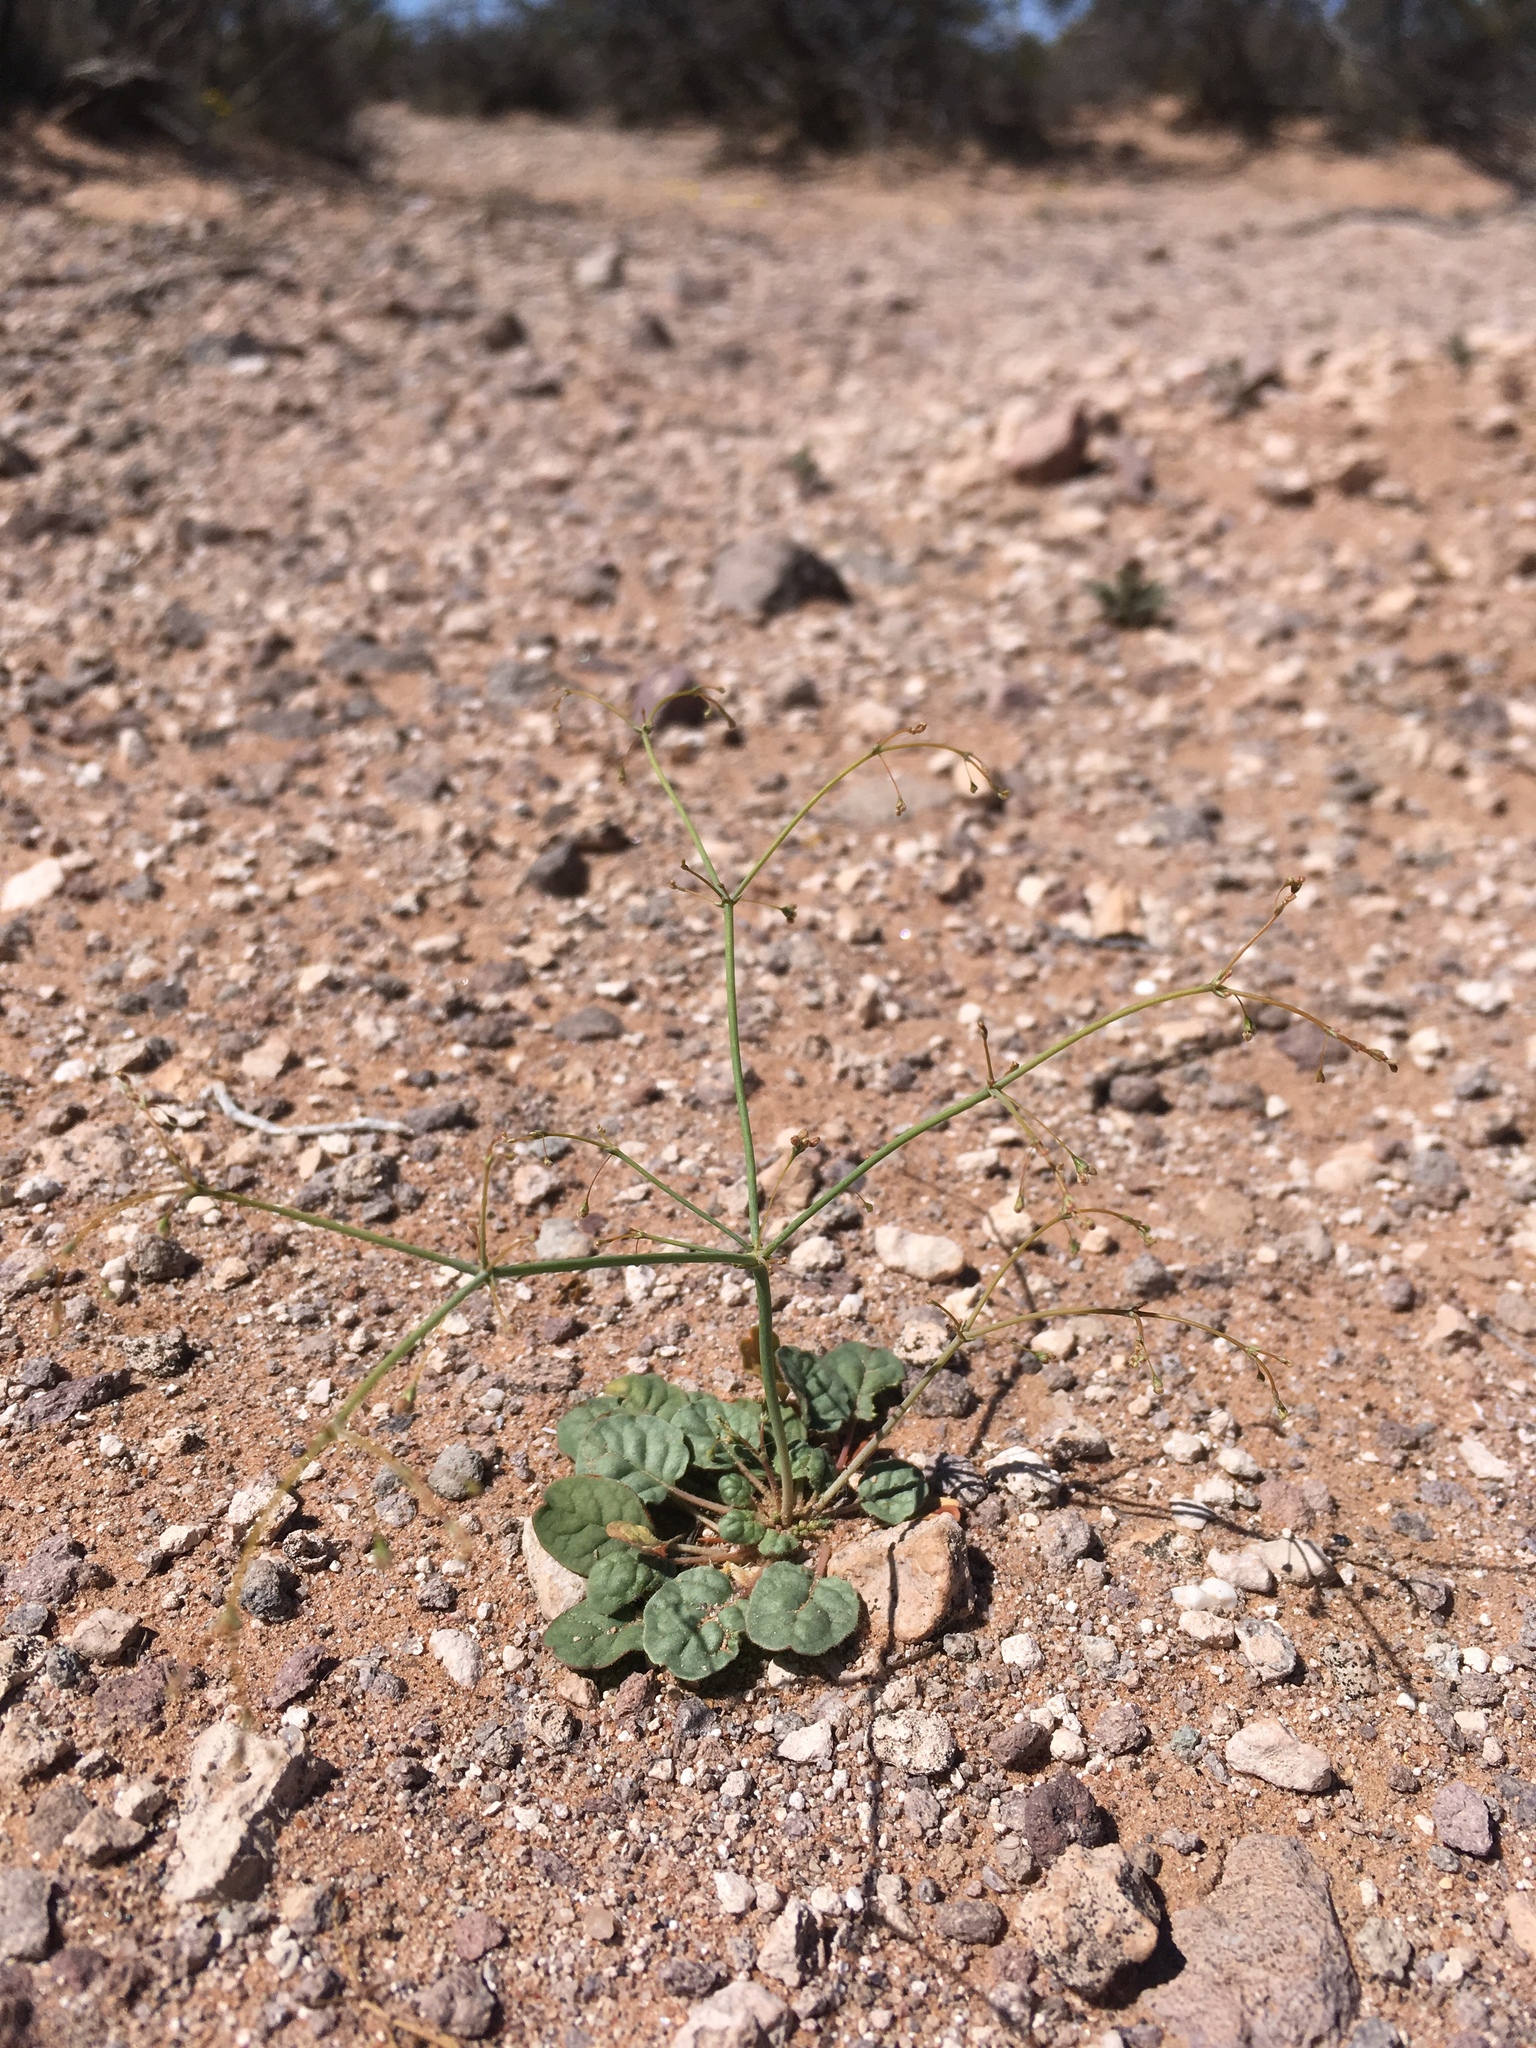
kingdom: Plantae
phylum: Tracheophyta
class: Magnoliopsida
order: Caryophyllales
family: Polygonaceae
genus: Eriogonum
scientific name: Eriogonum trichopes
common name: Little desert trumpet
